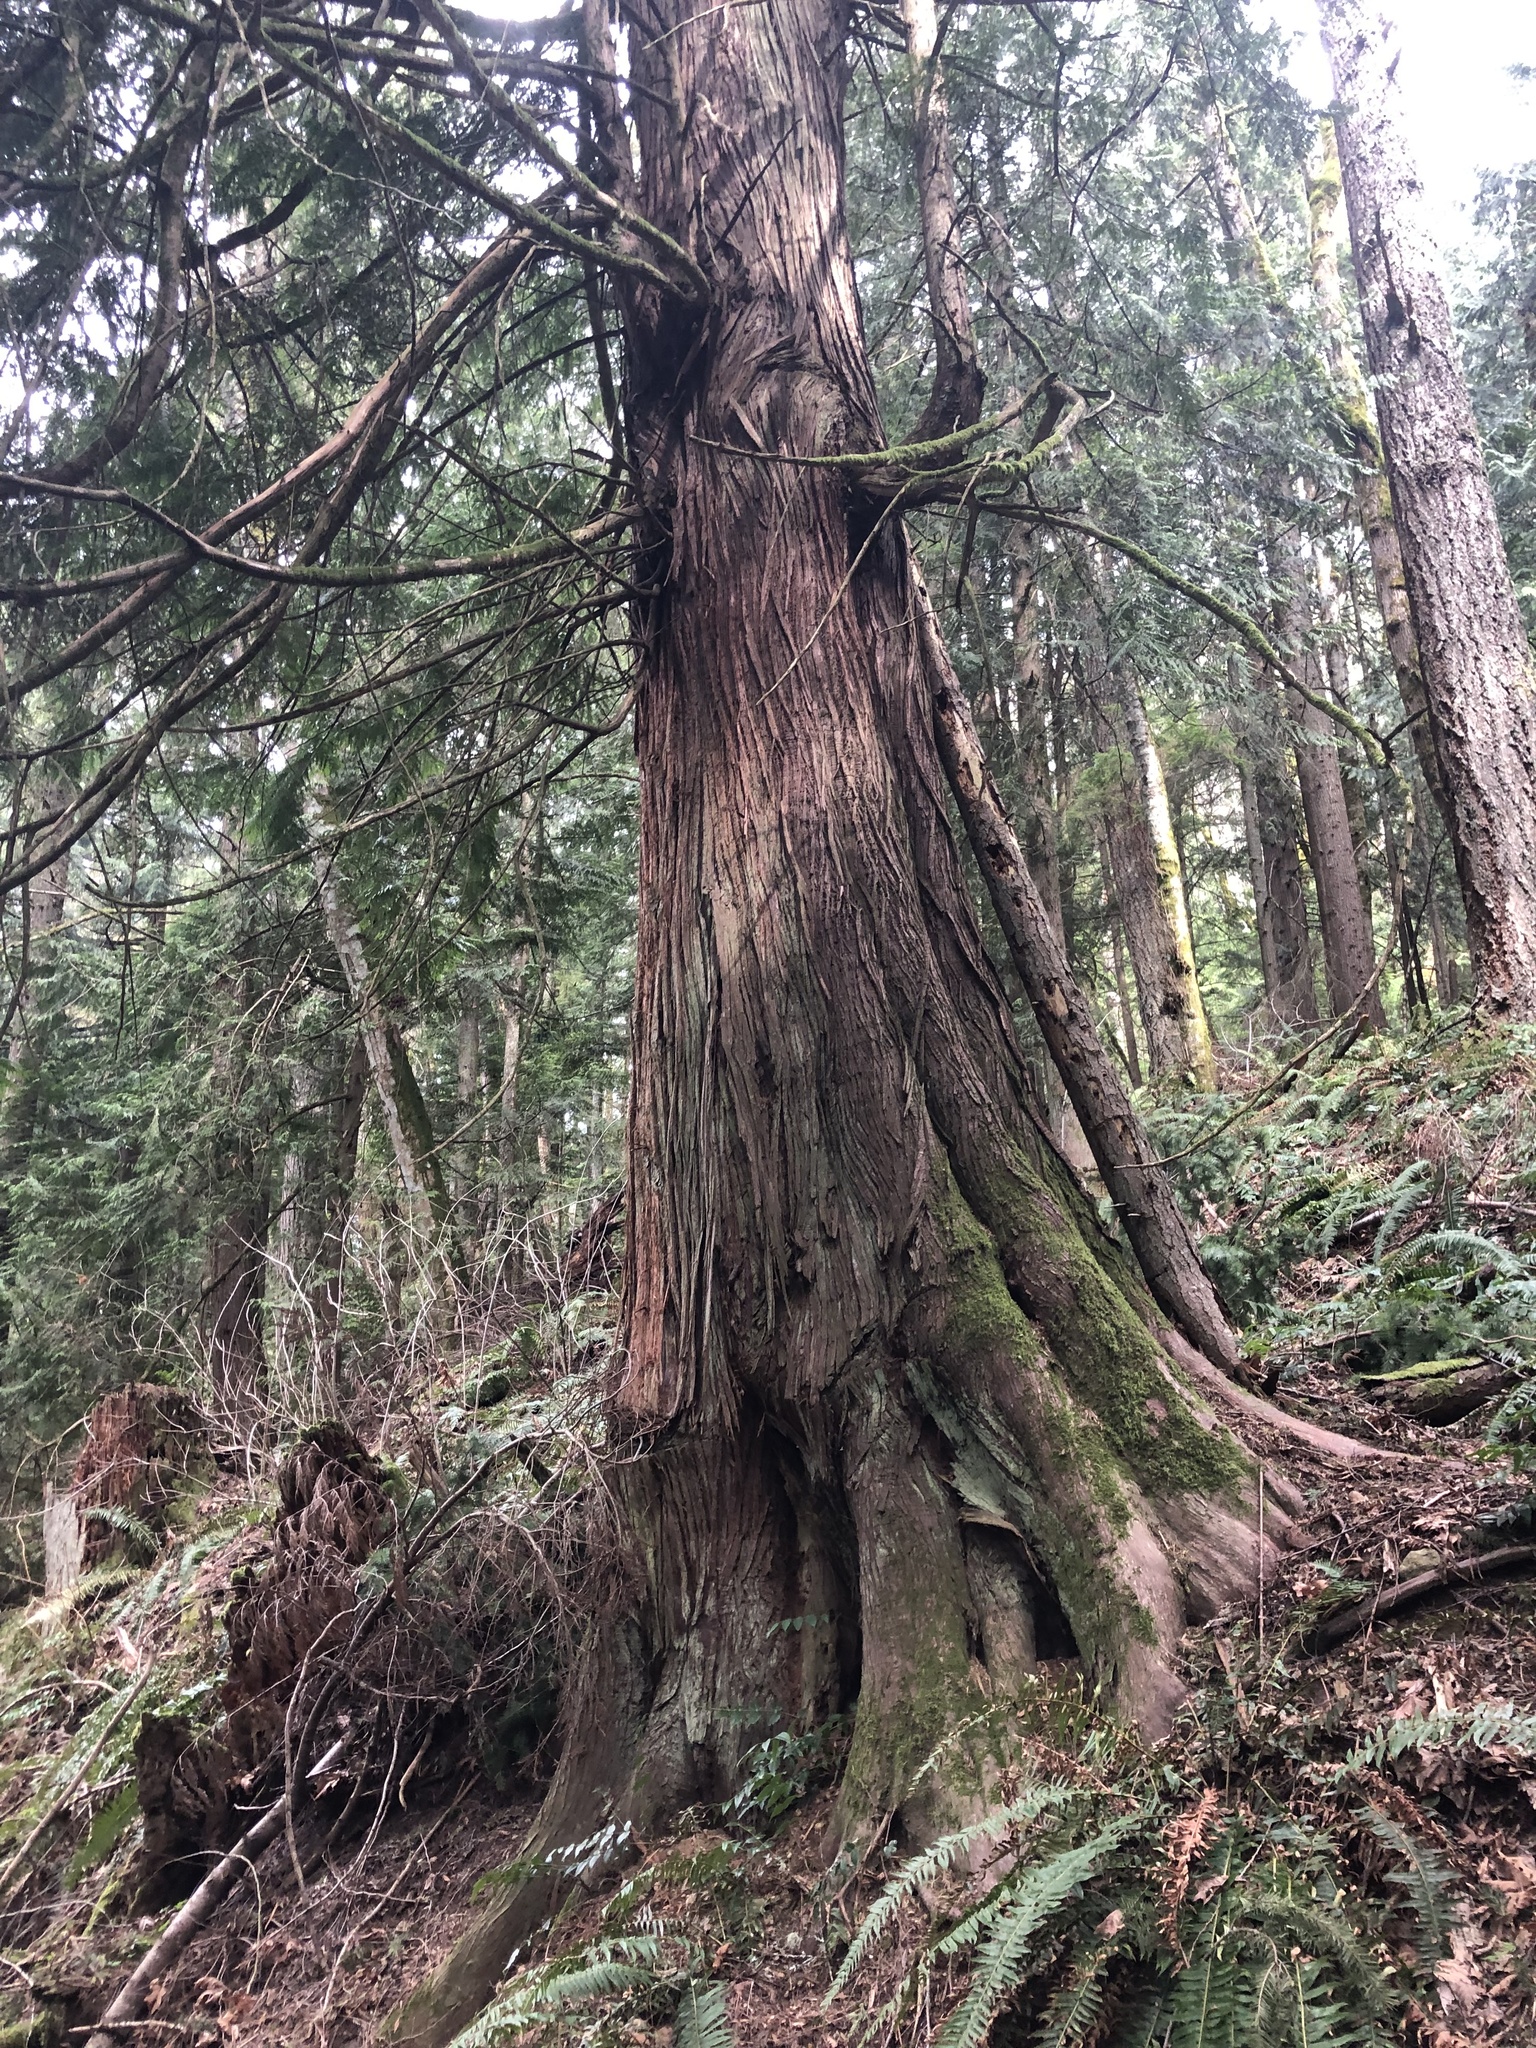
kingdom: Plantae
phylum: Tracheophyta
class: Pinopsida
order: Pinales
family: Cupressaceae
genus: Thuja
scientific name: Thuja plicata
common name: Western red-cedar
